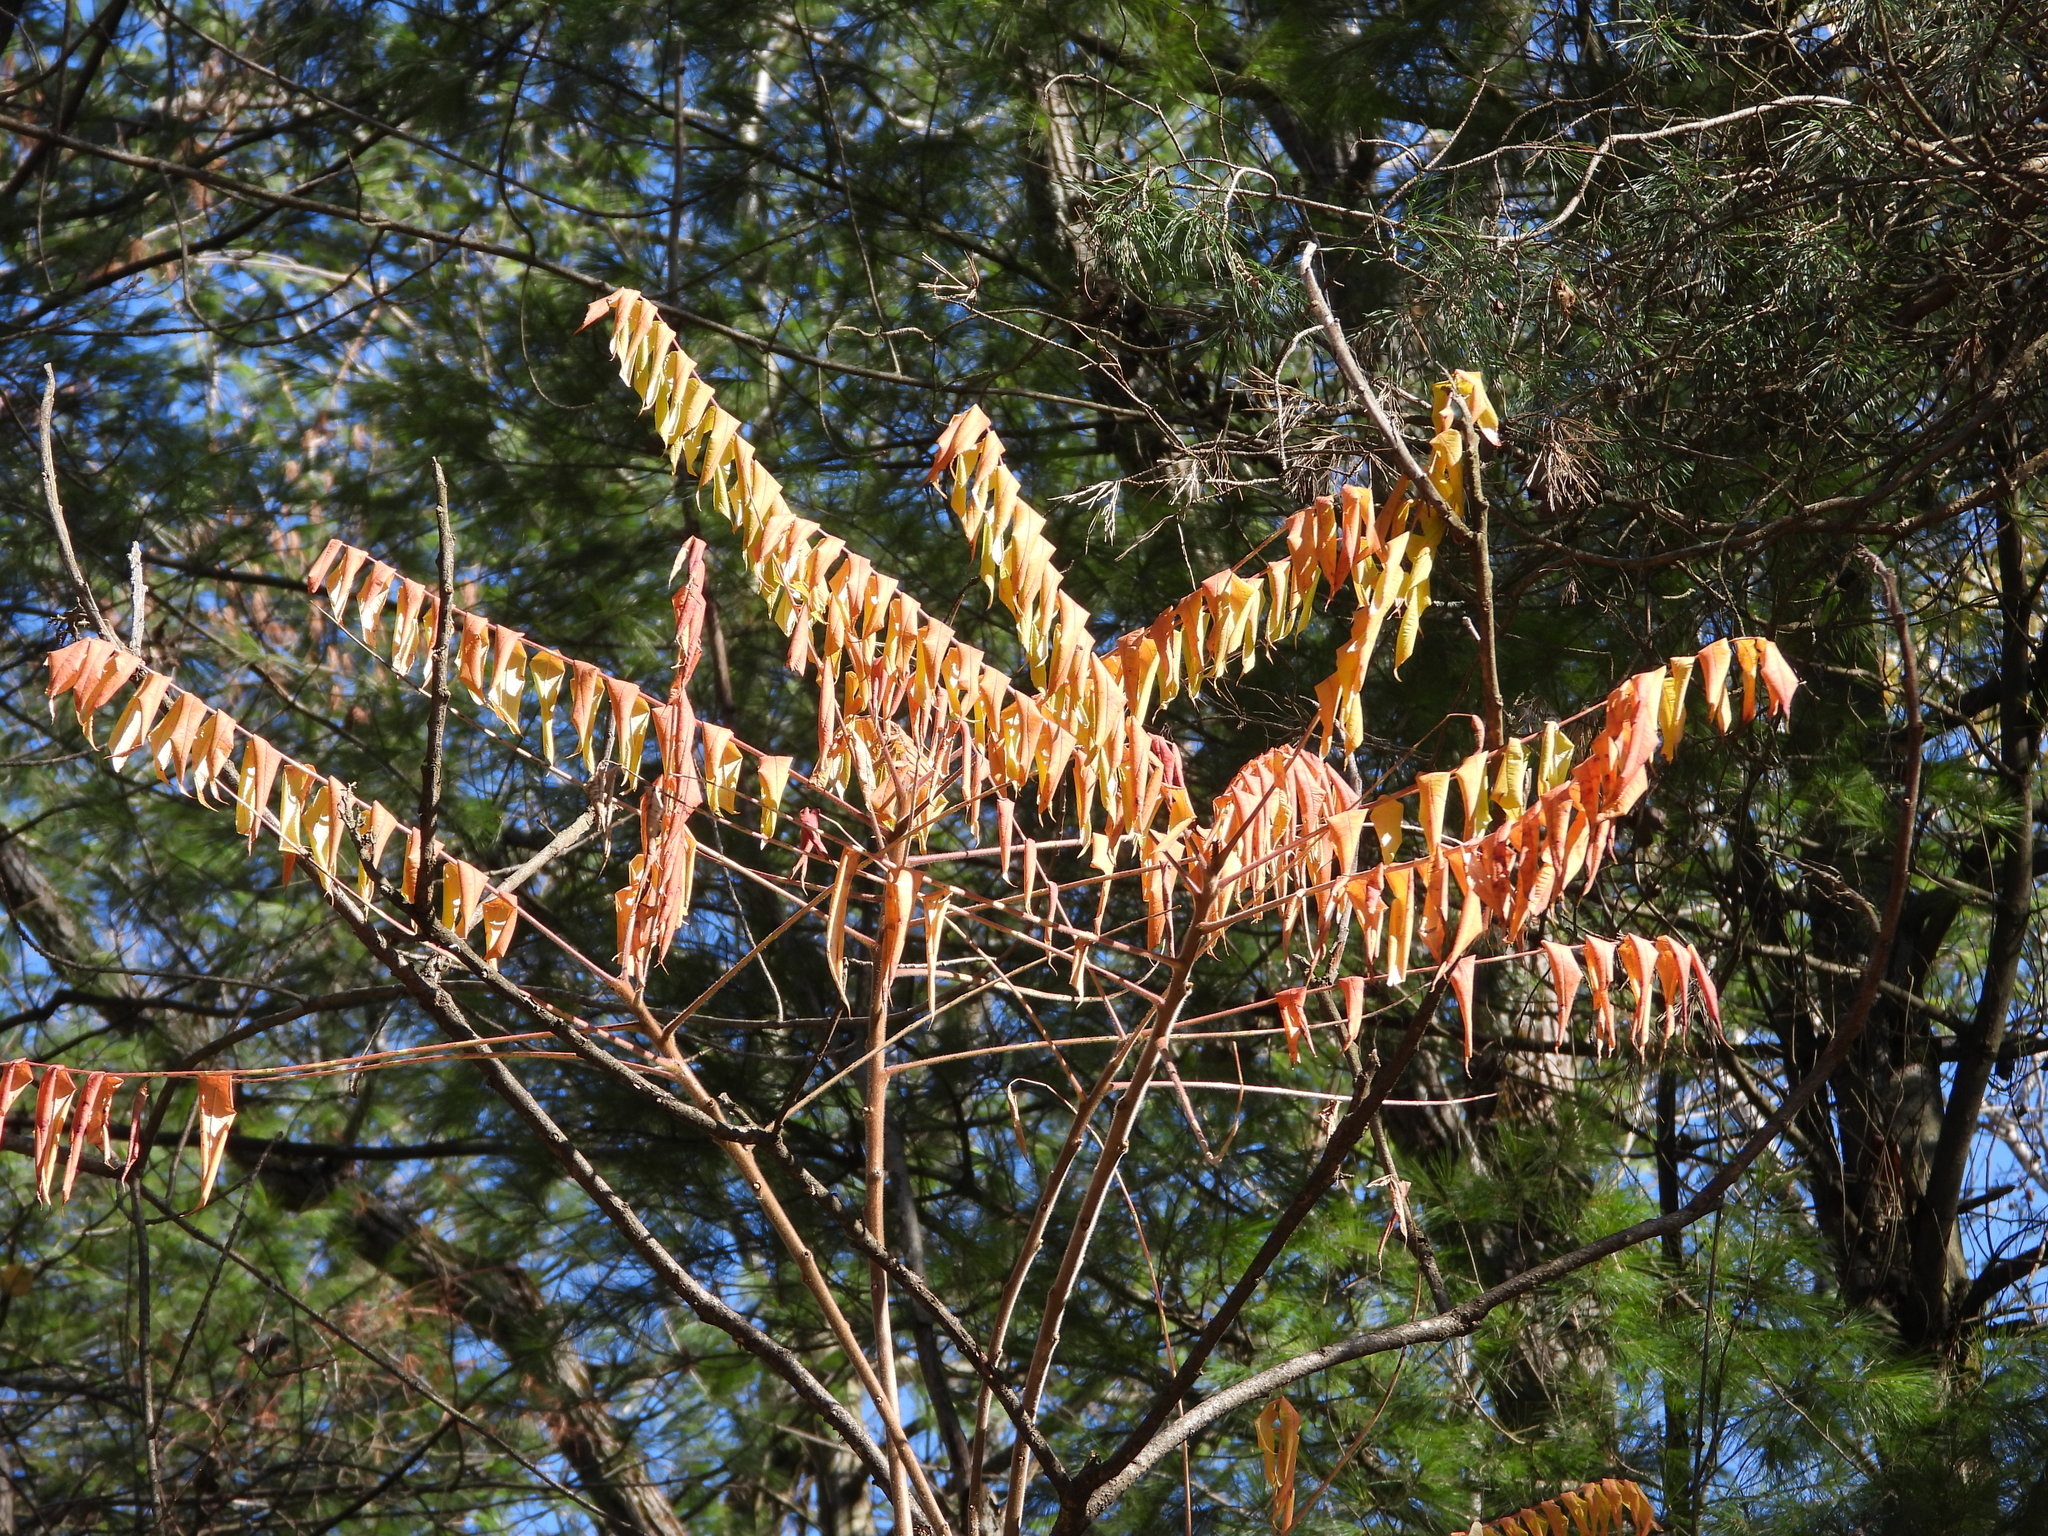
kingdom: Plantae
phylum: Tracheophyta
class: Magnoliopsida
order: Sapindales
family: Anacardiaceae
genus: Rhus
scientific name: Rhus typhina
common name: Staghorn sumac
